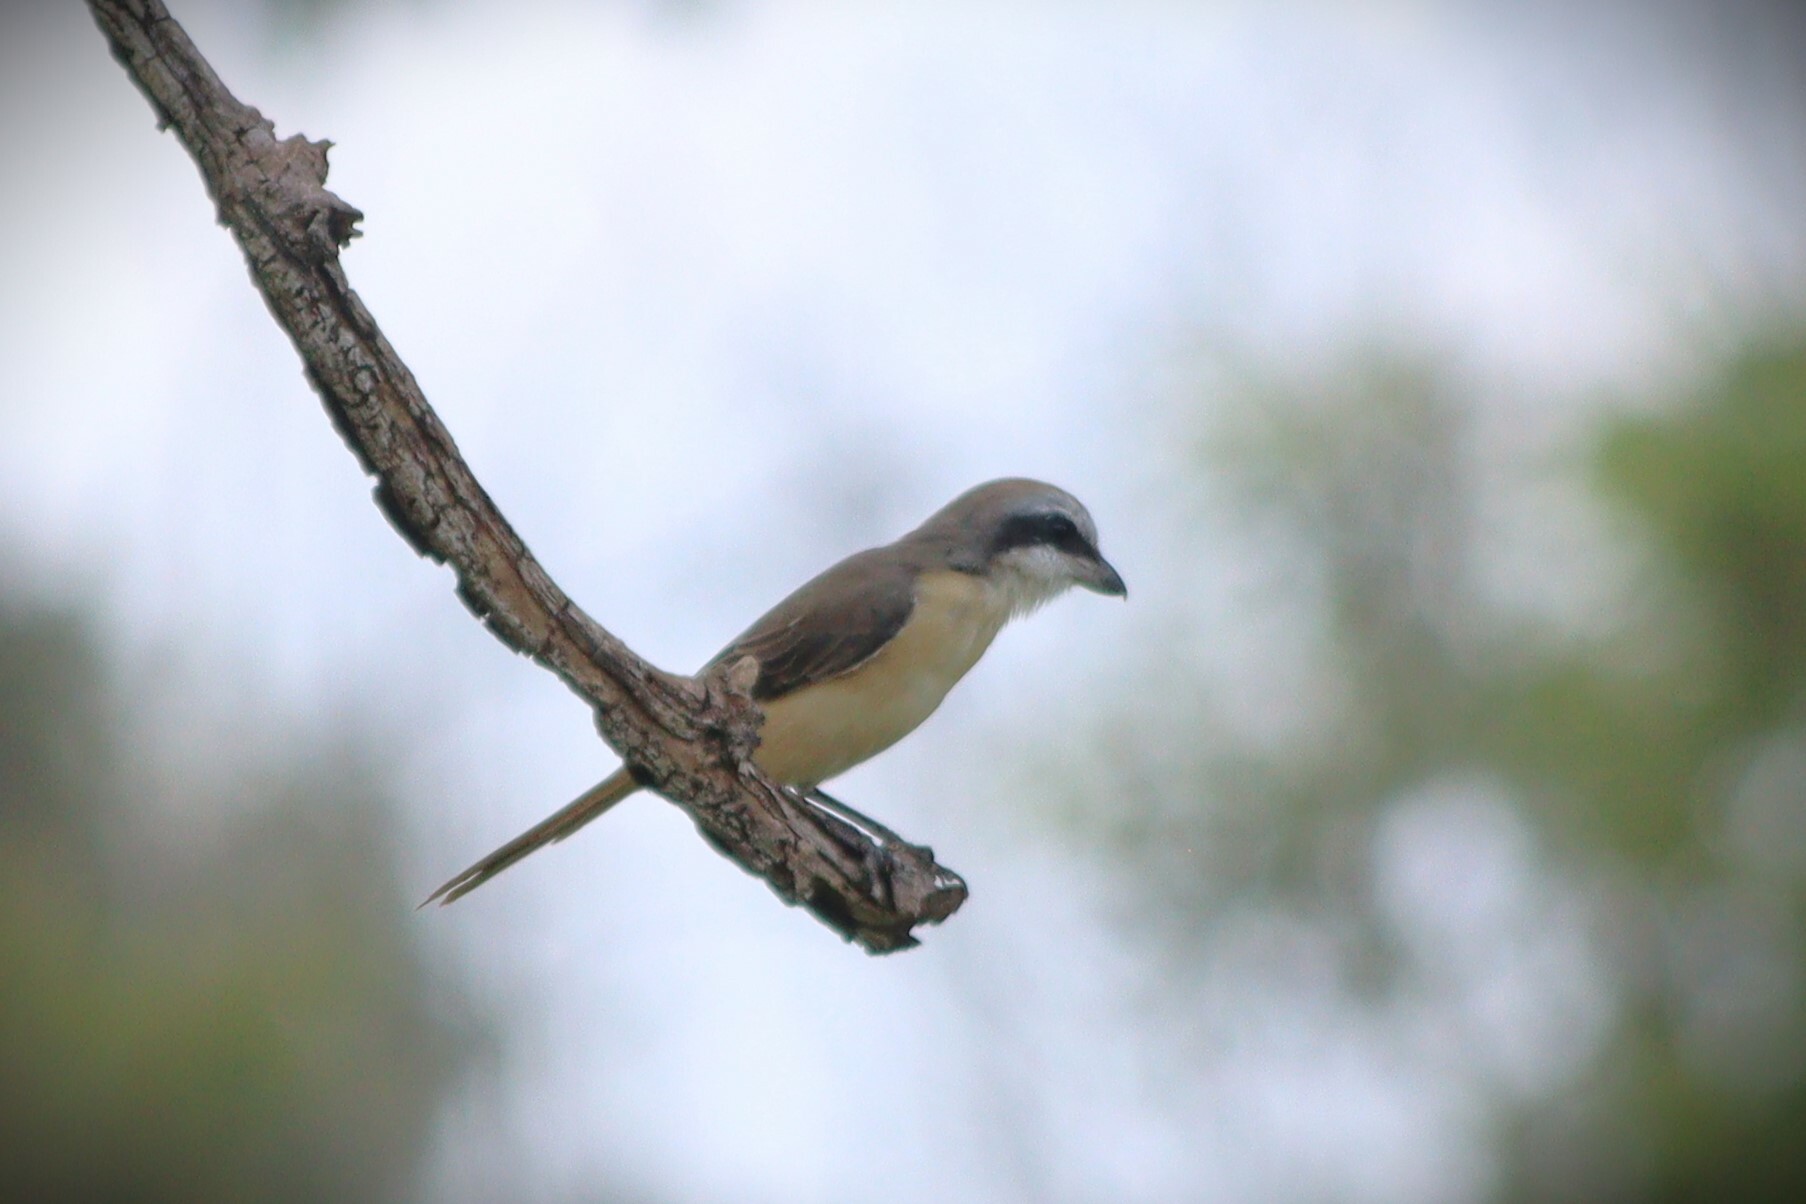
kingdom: Animalia
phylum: Chordata
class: Aves
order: Passeriformes
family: Laniidae
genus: Lanius
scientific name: Lanius cristatus
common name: Brown shrike
